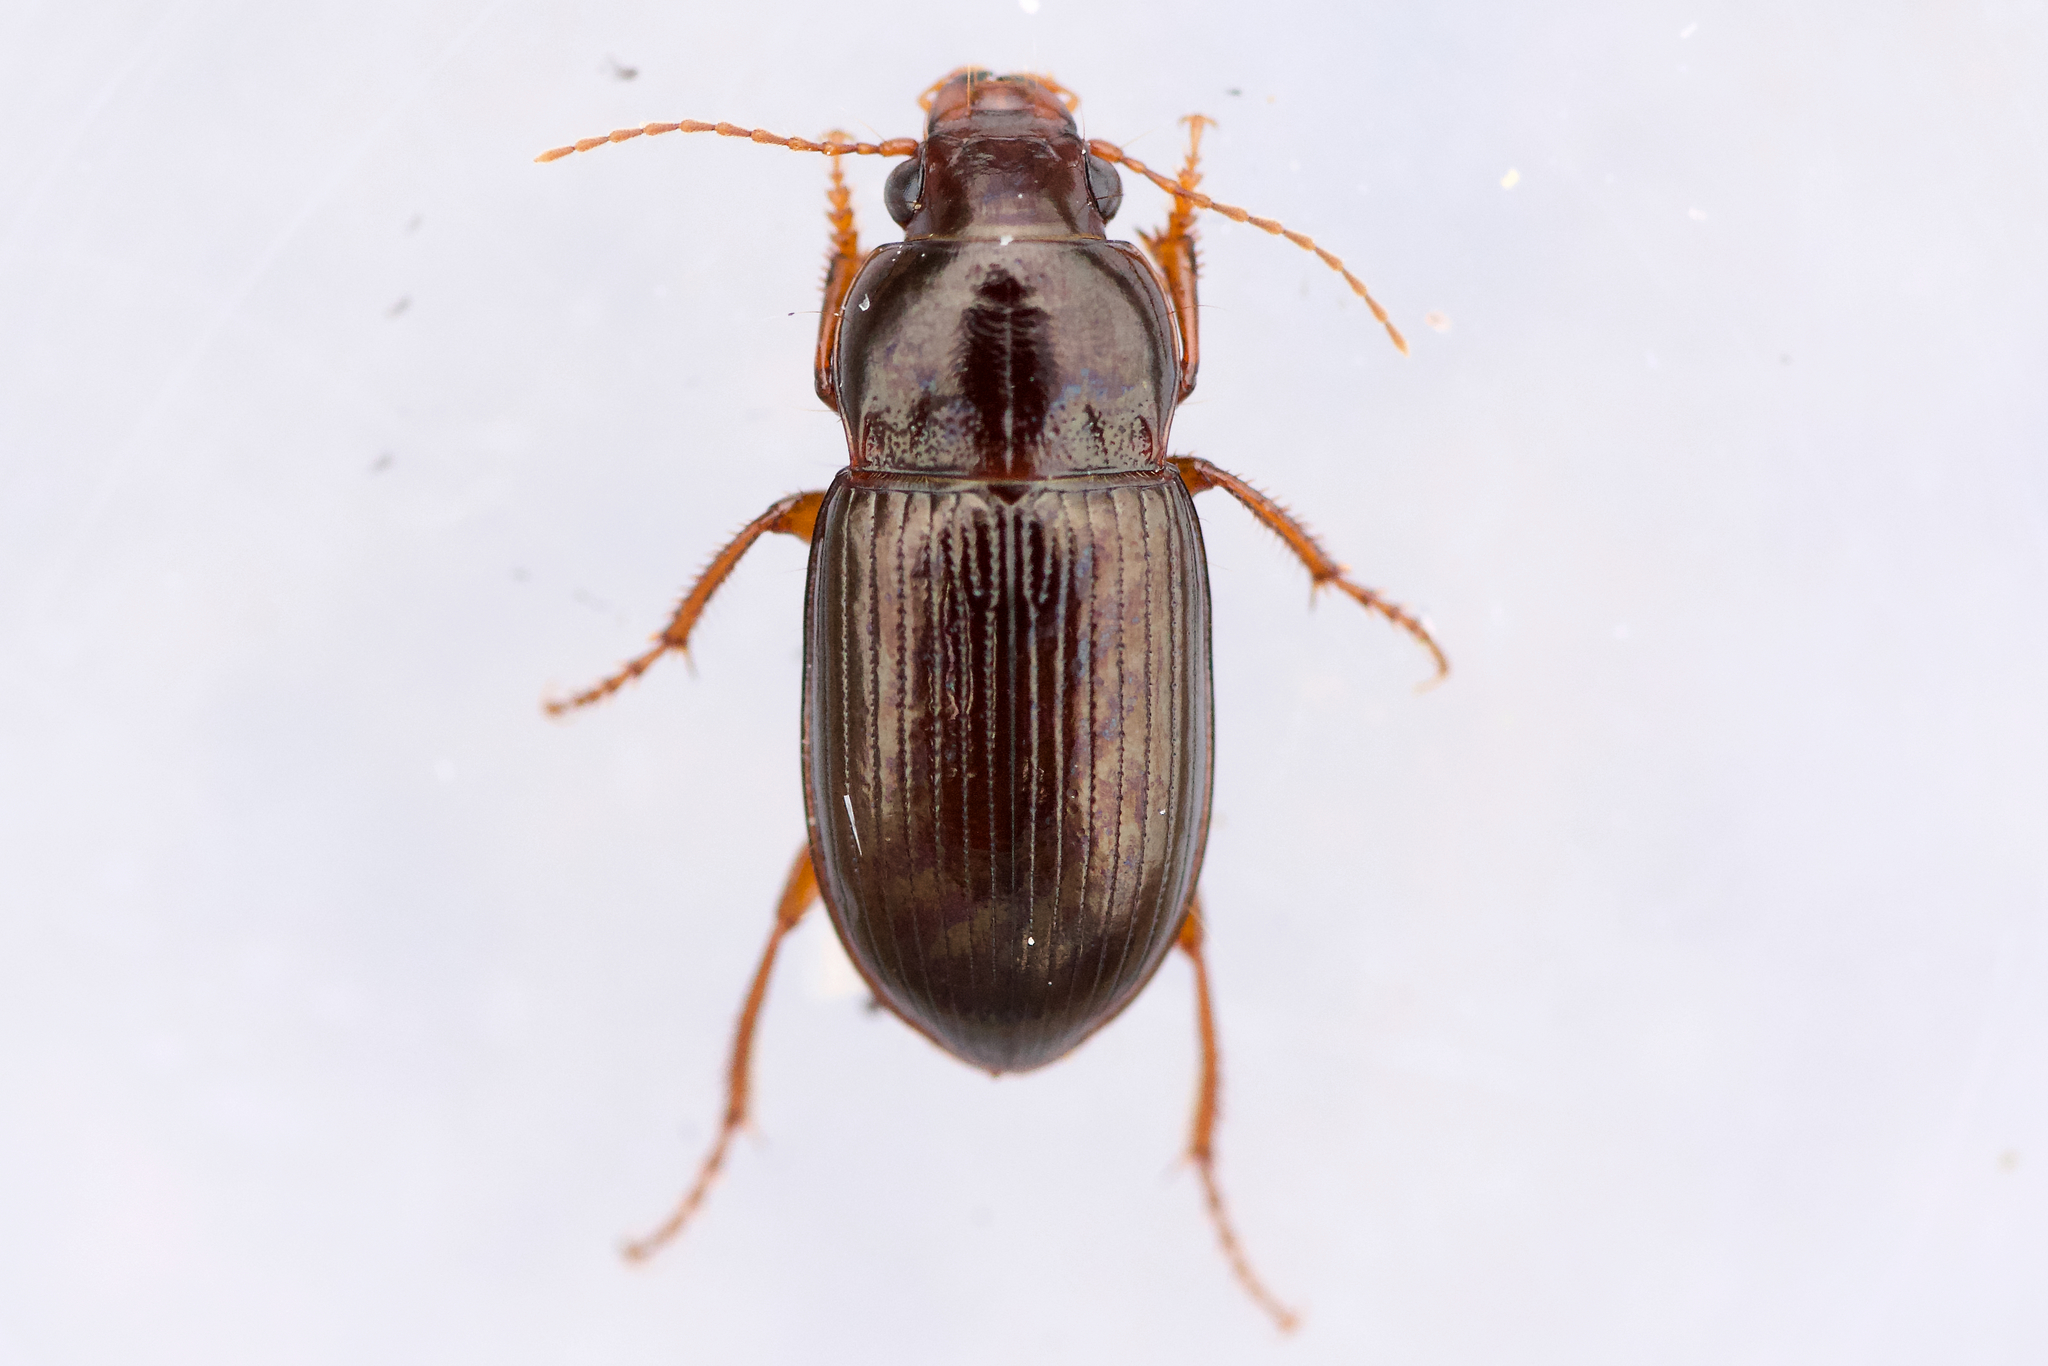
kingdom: Animalia
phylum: Arthropoda
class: Insecta
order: Coleoptera
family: Carabidae
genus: Amara
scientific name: Amara apricaria
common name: Exposed sun beetle
